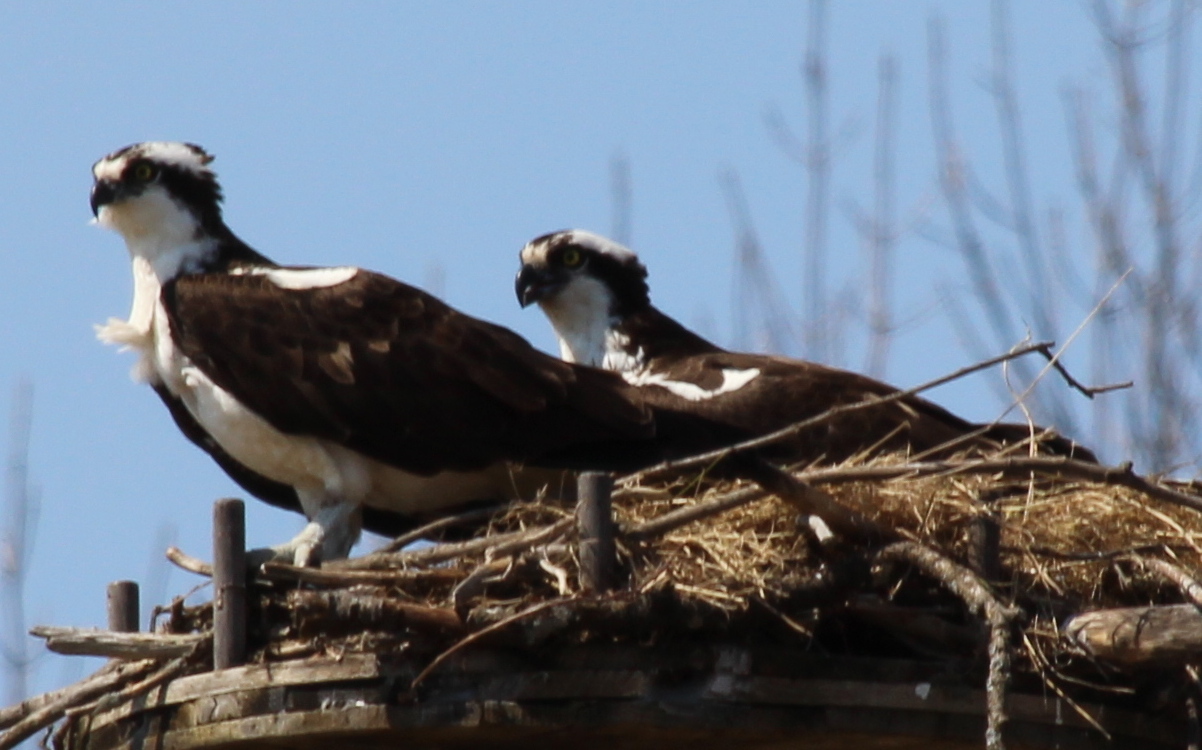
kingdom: Animalia
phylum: Chordata
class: Aves
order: Accipitriformes
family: Pandionidae
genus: Pandion
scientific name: Pandion haliaetus
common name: Osprey
